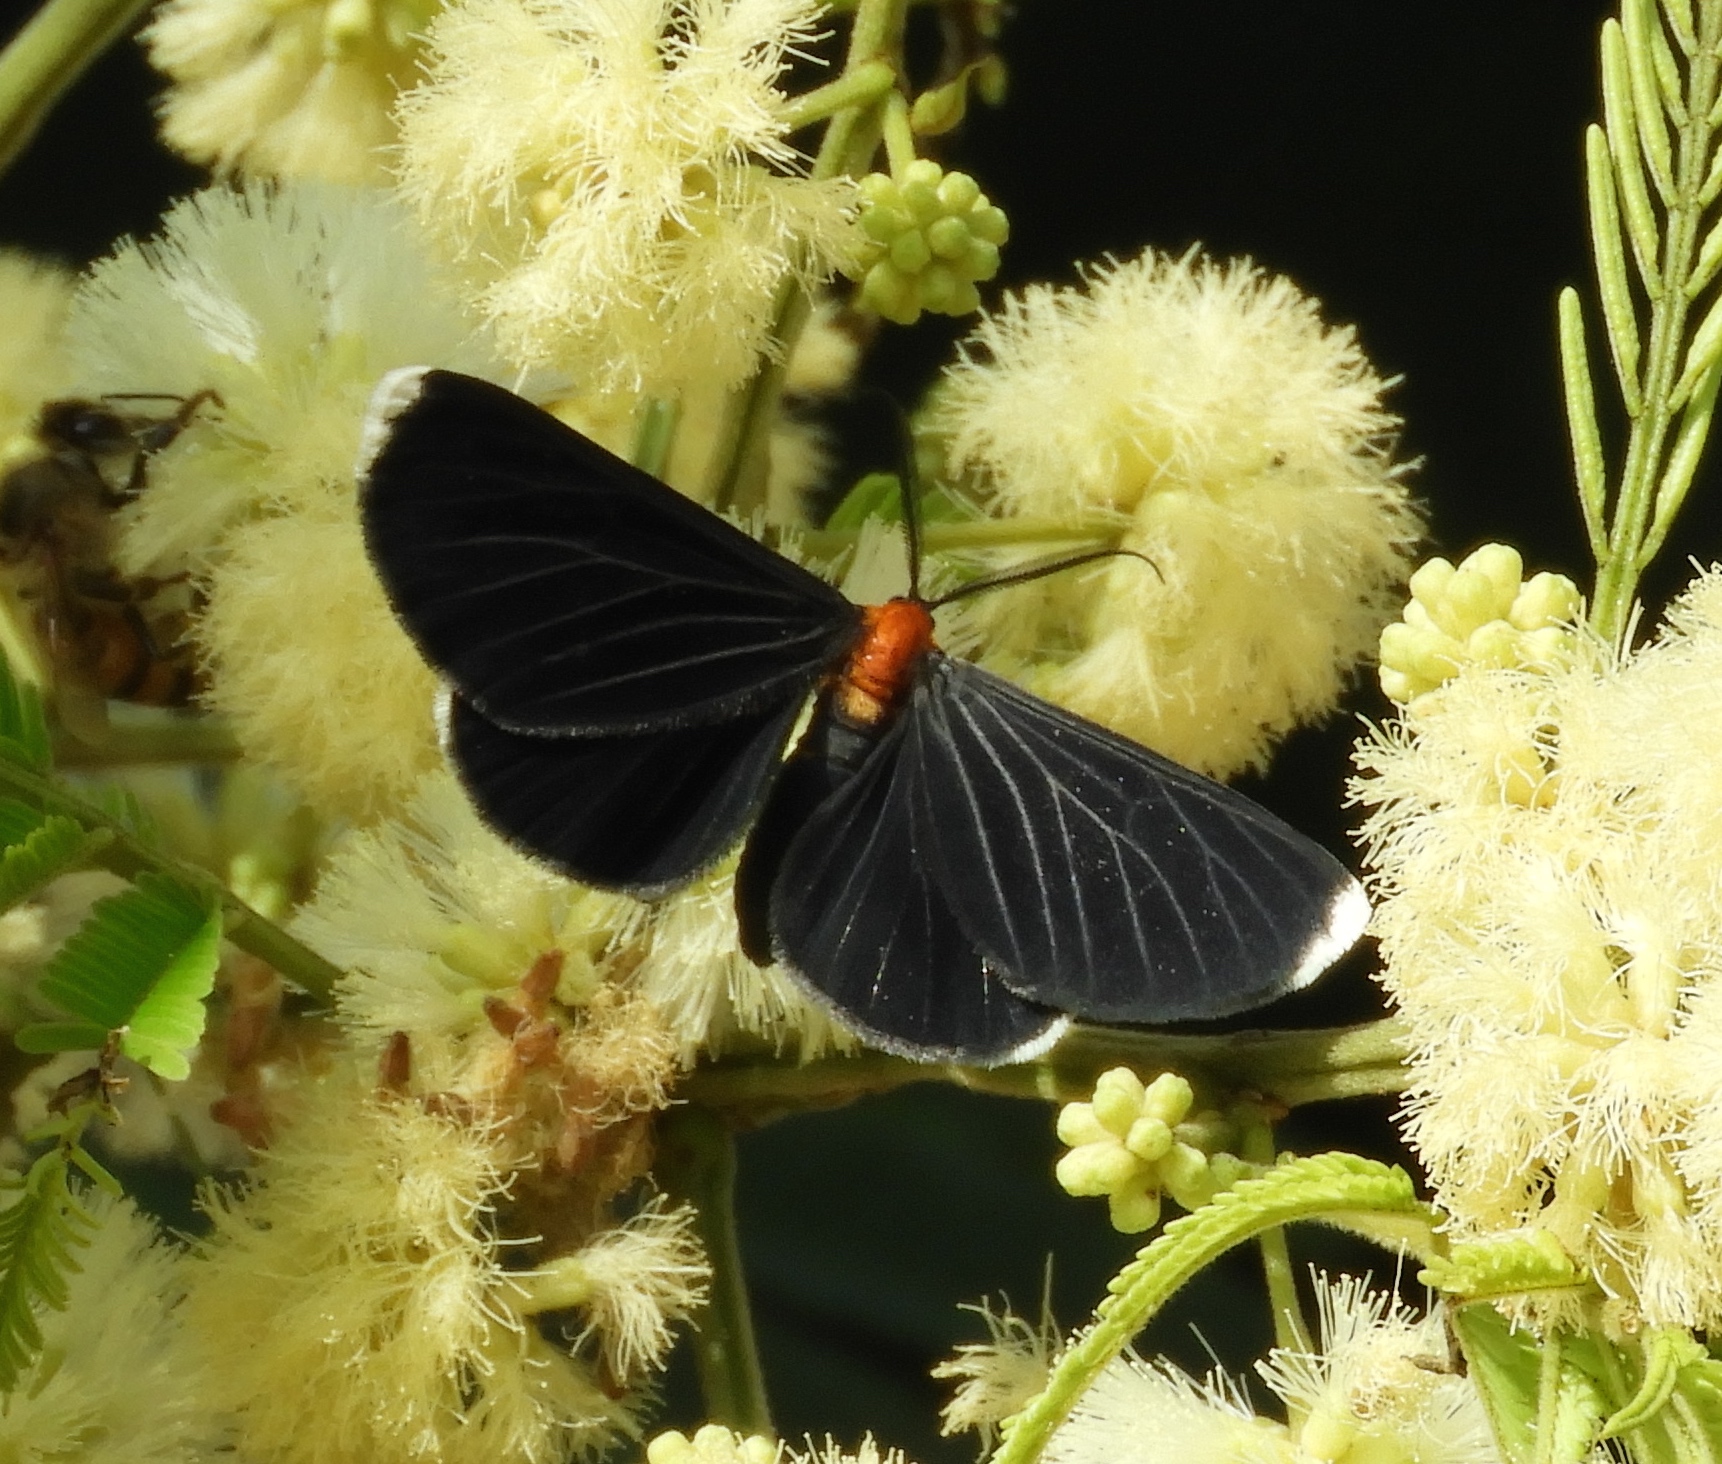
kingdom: Animalia
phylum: Arthropoda
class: Insecta
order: Lepidoptera
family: Geometridae
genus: Melanchroia
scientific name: Melanchroia chephise
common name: White-tipped black
